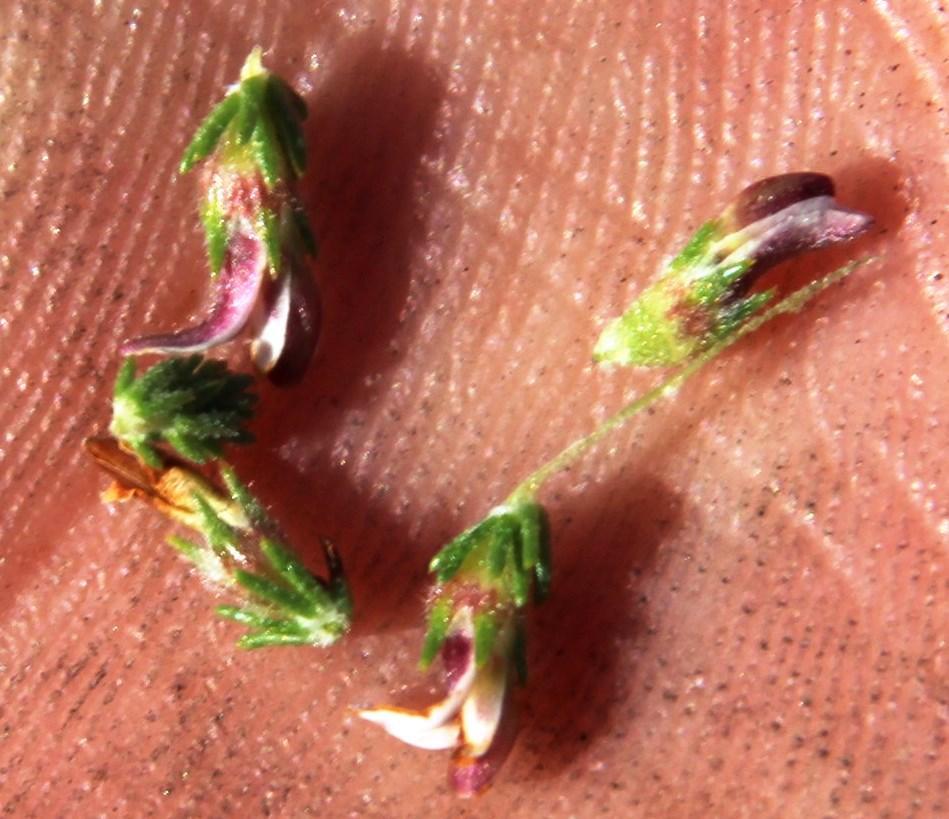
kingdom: Plantae
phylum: Tracheophyta
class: Magnoliopsida
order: Fabales
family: Fabaceae
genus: Aspalathus
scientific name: Aspalathus hispida
